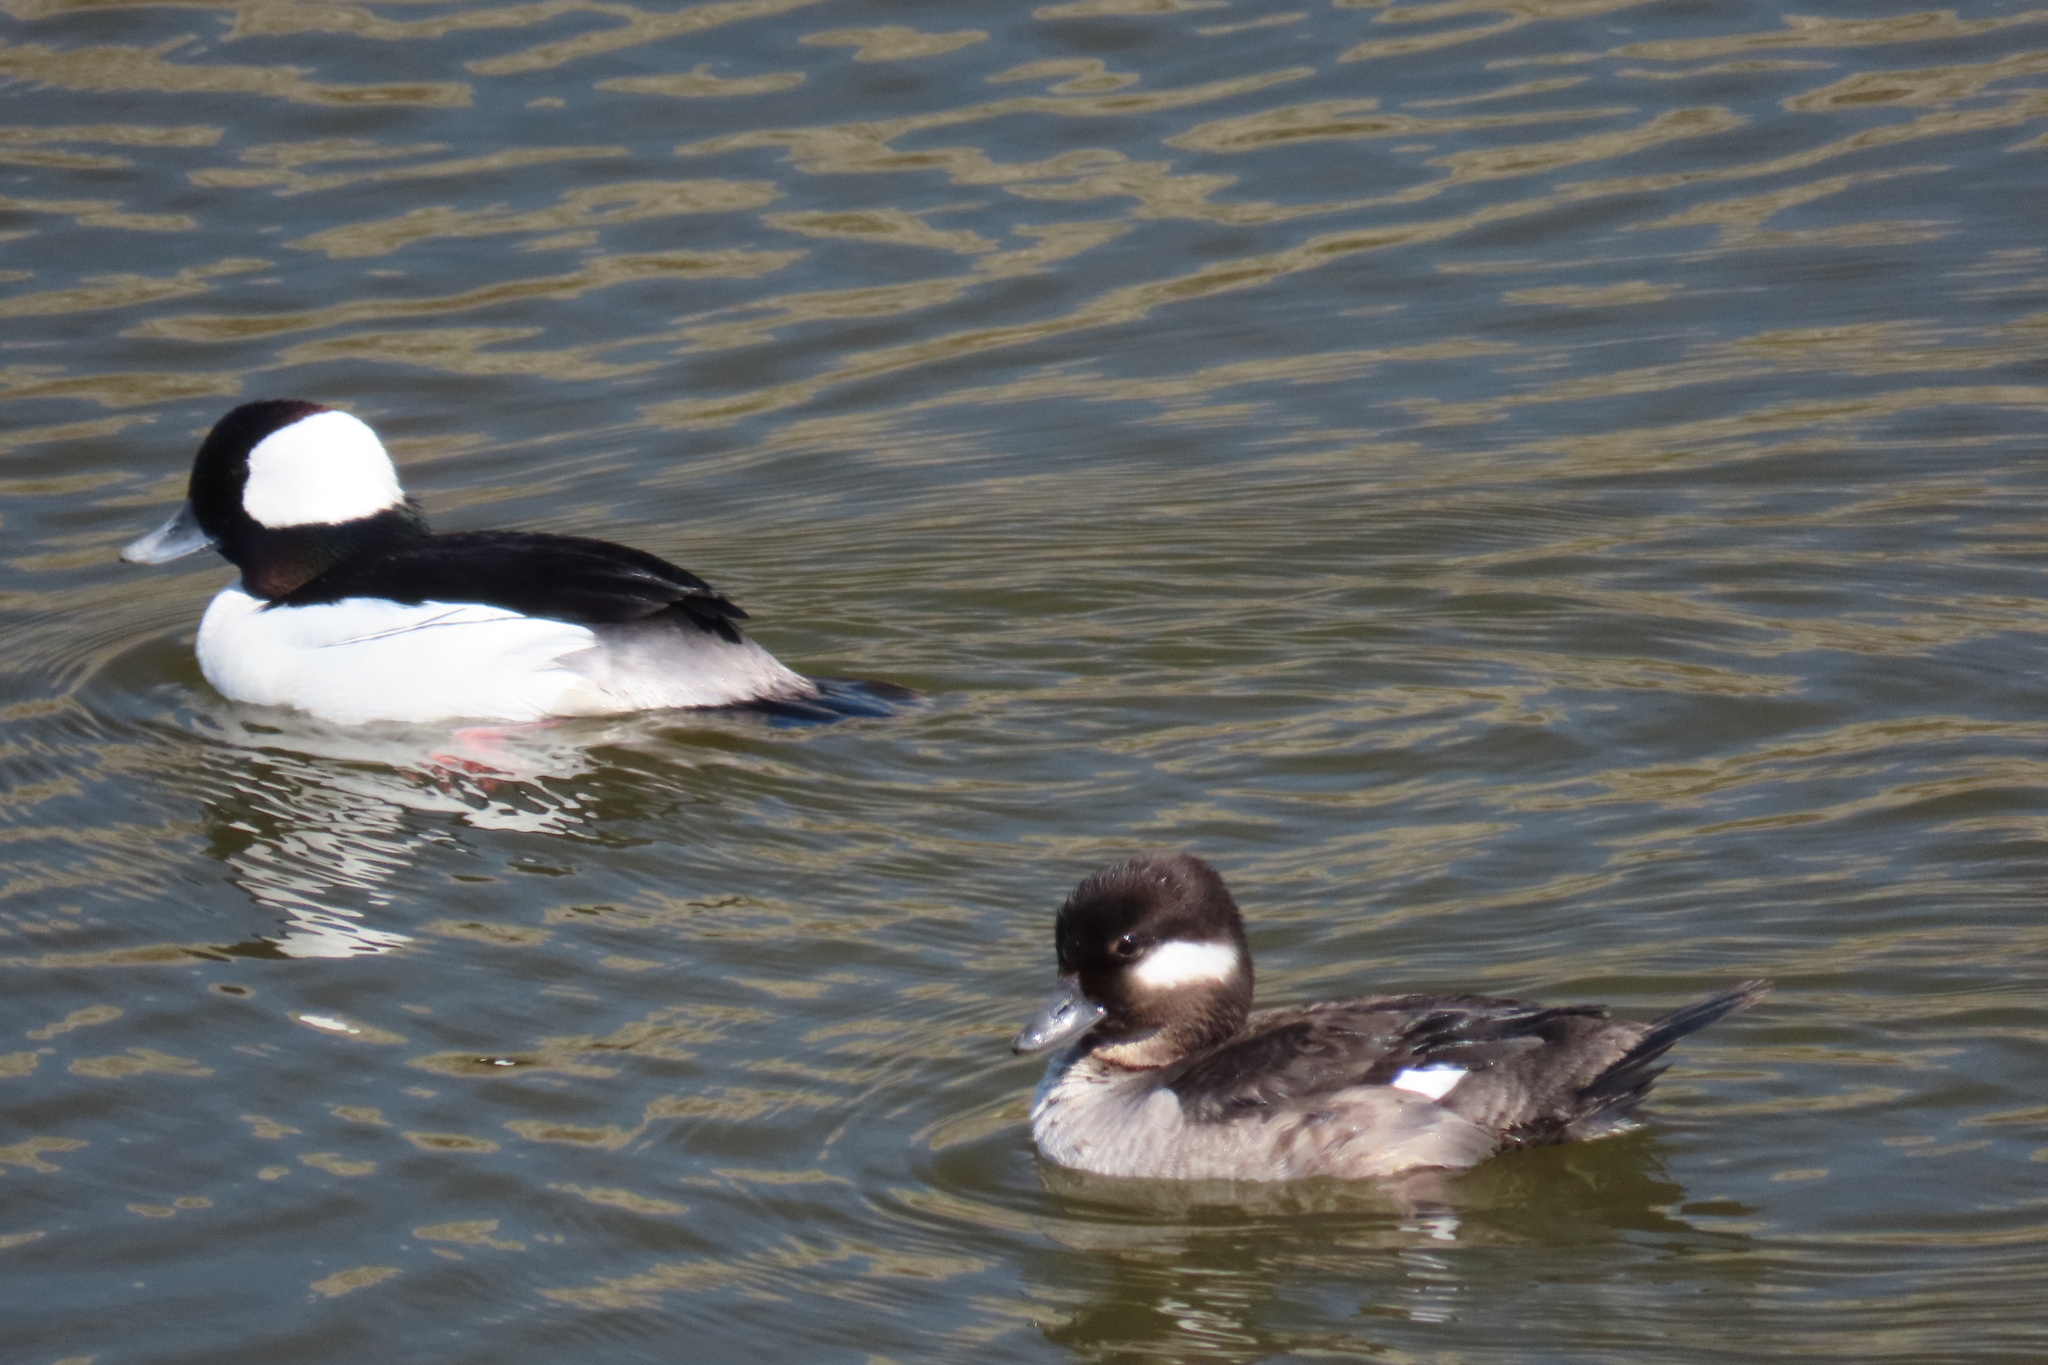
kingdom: Animalia
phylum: Chordata
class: Aves
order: Anseriformes
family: Anatidae
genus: Bucephala
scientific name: Bucephala albeola
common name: Bufflehead
